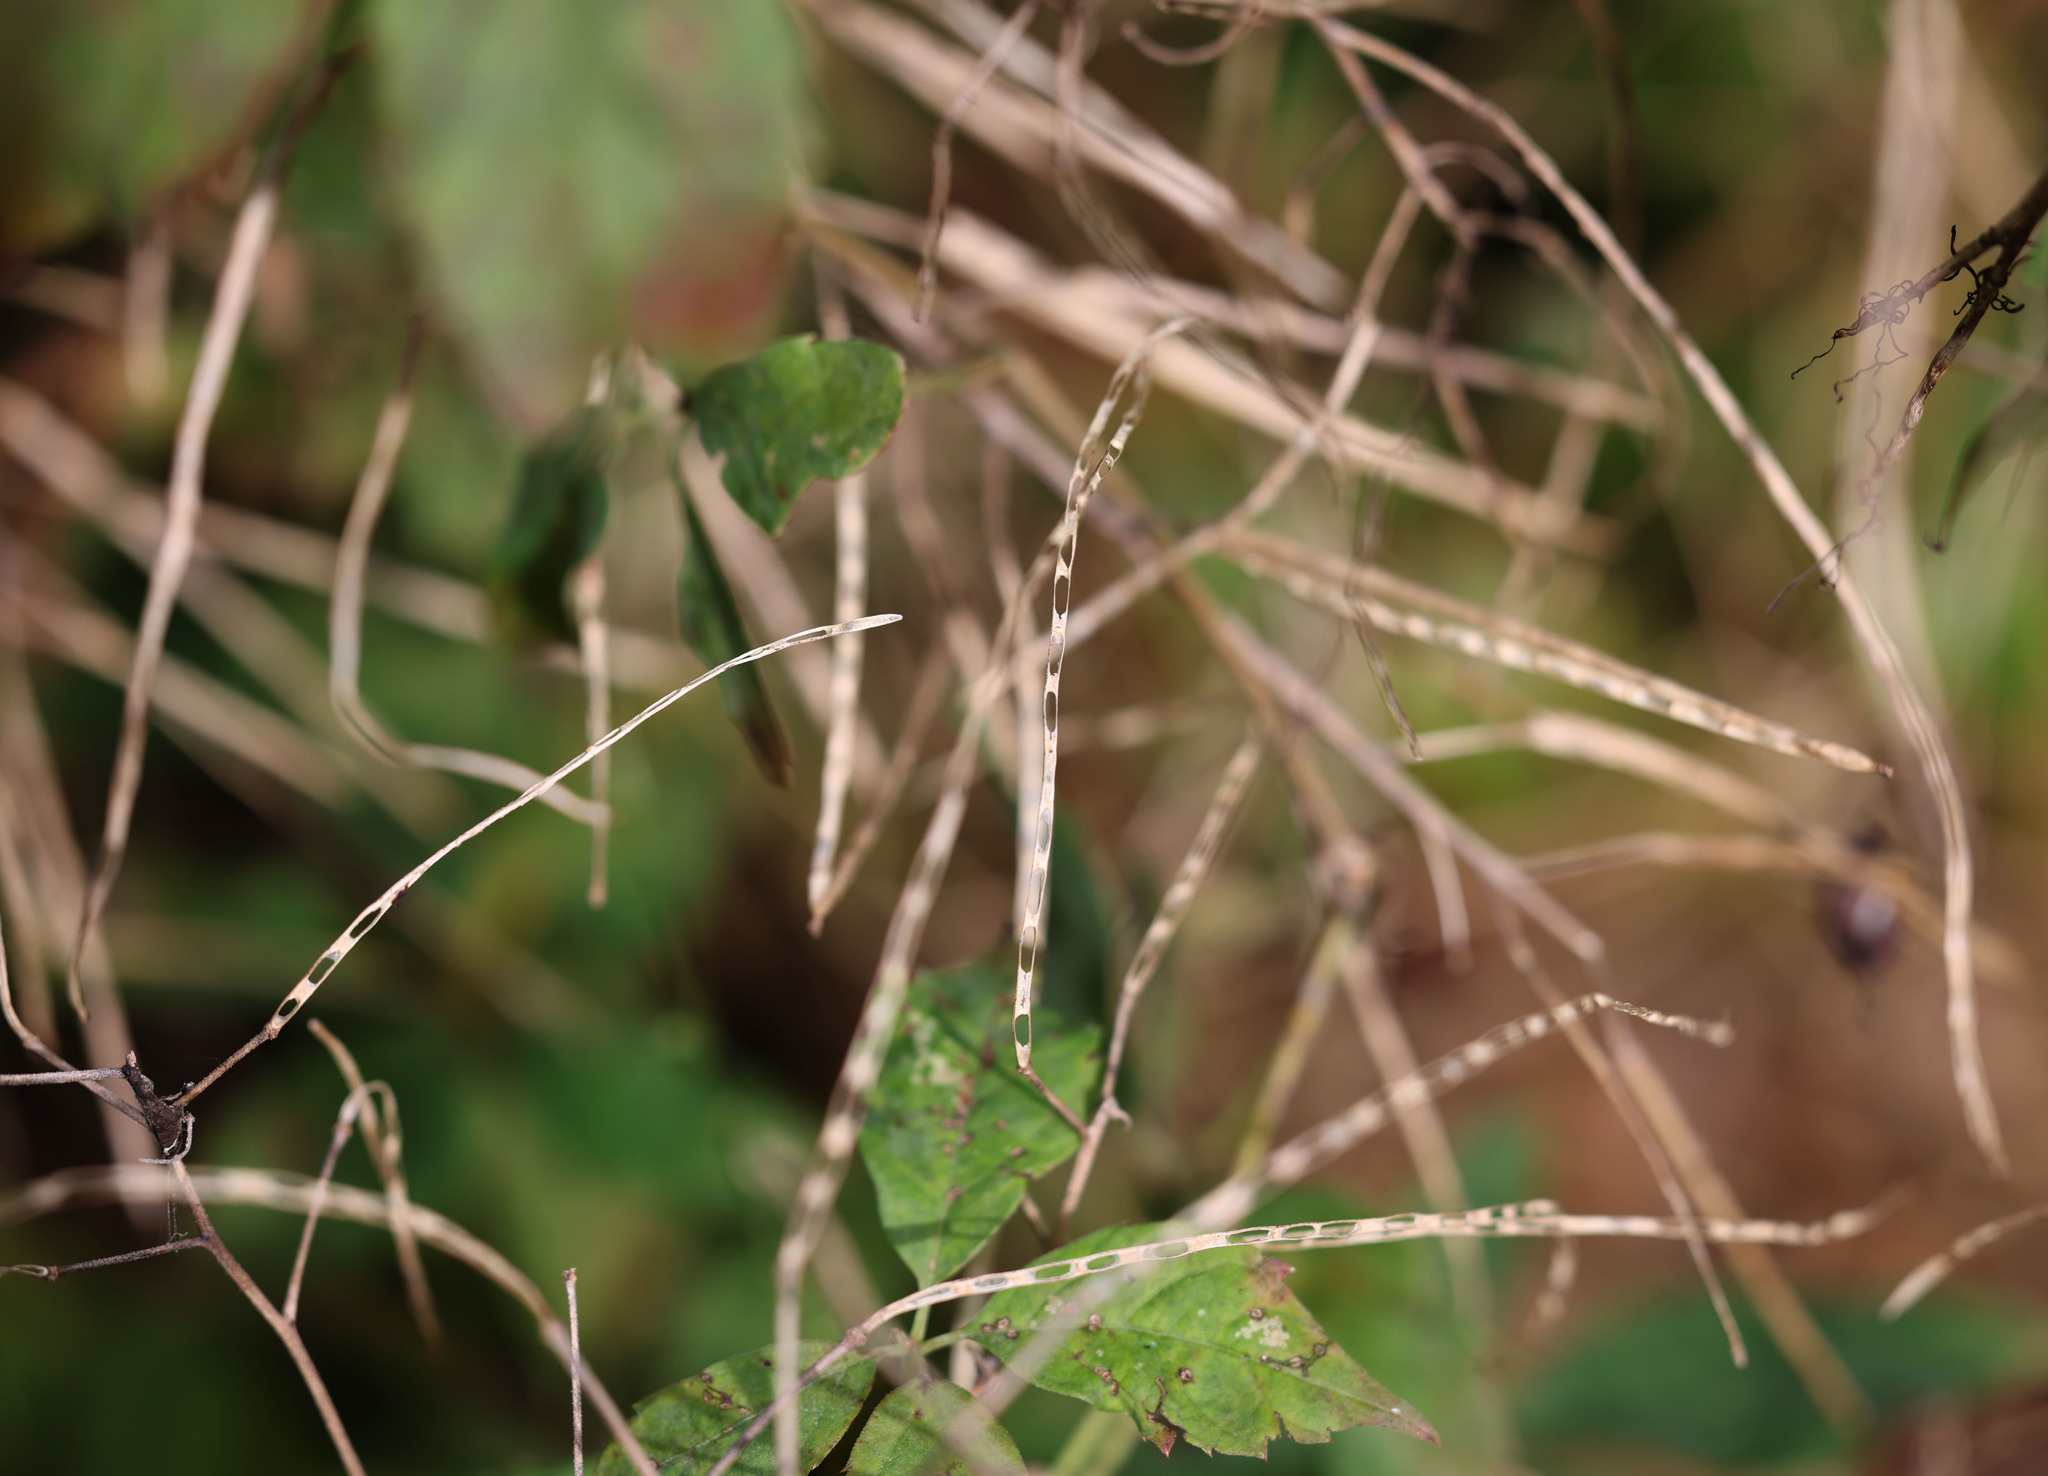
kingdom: Plantae
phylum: Tracheophyta
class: Magnoliopsida
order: Brassicales
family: Brassicaceae
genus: Hesperis
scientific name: Hesperis matronalis
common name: Dame's-violet
